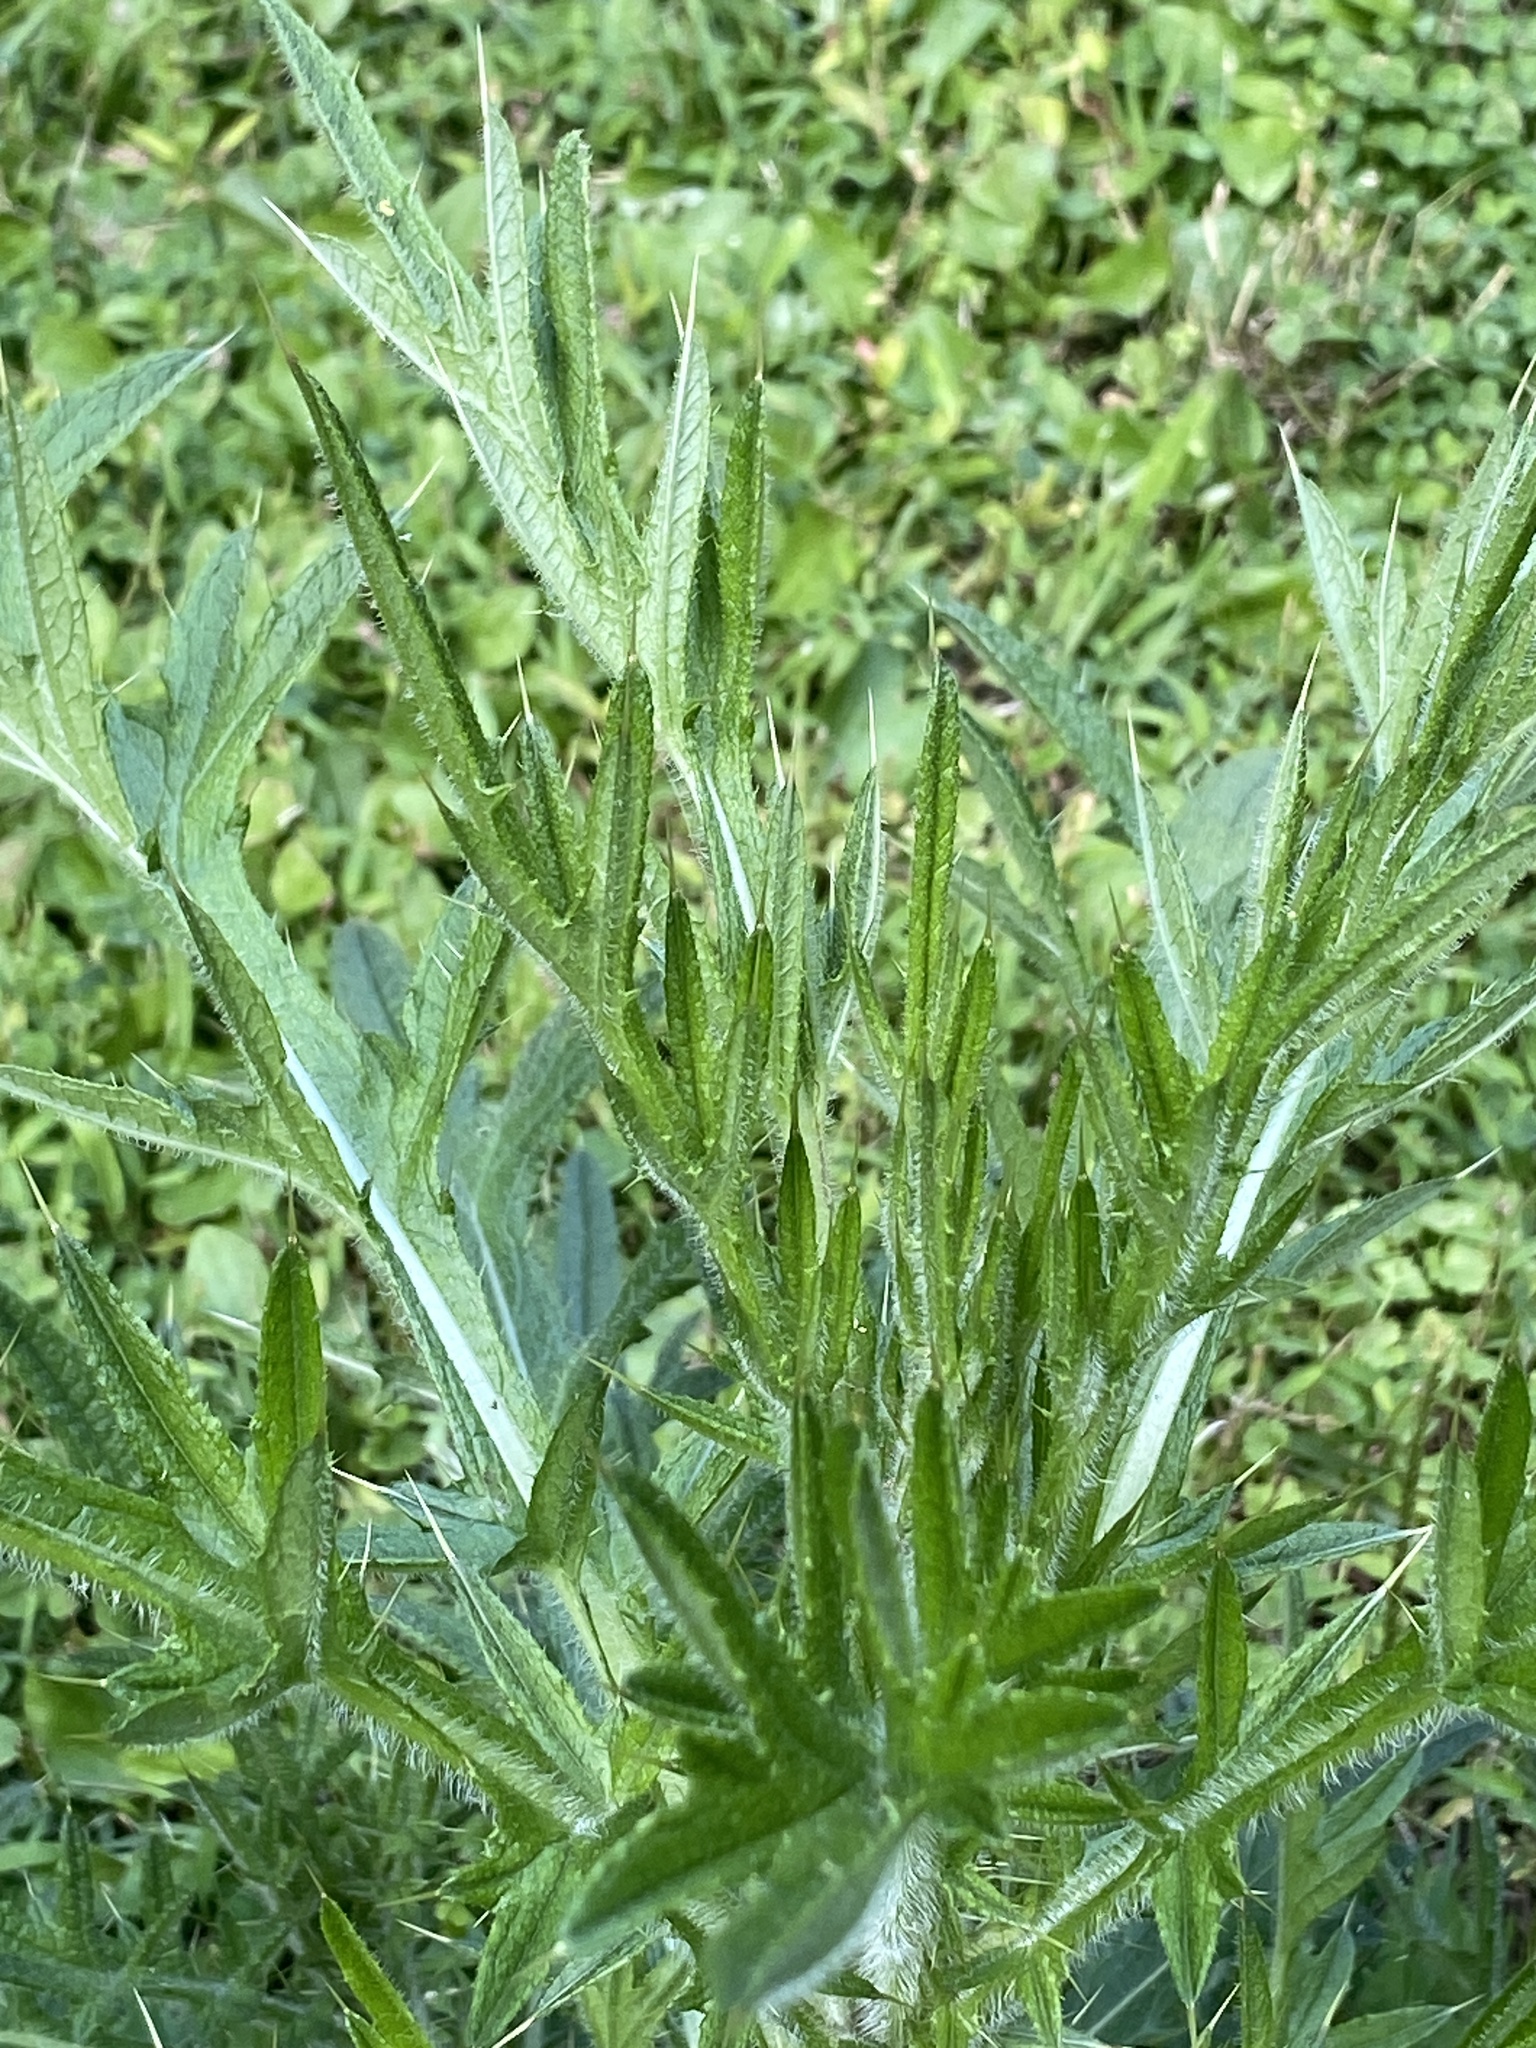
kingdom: Plantae
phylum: Tracheophyta
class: Magnoliopsida
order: Asterales
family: Asteraceae
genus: Cirsium
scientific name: Cirsium vulgare
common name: Bull thistle
